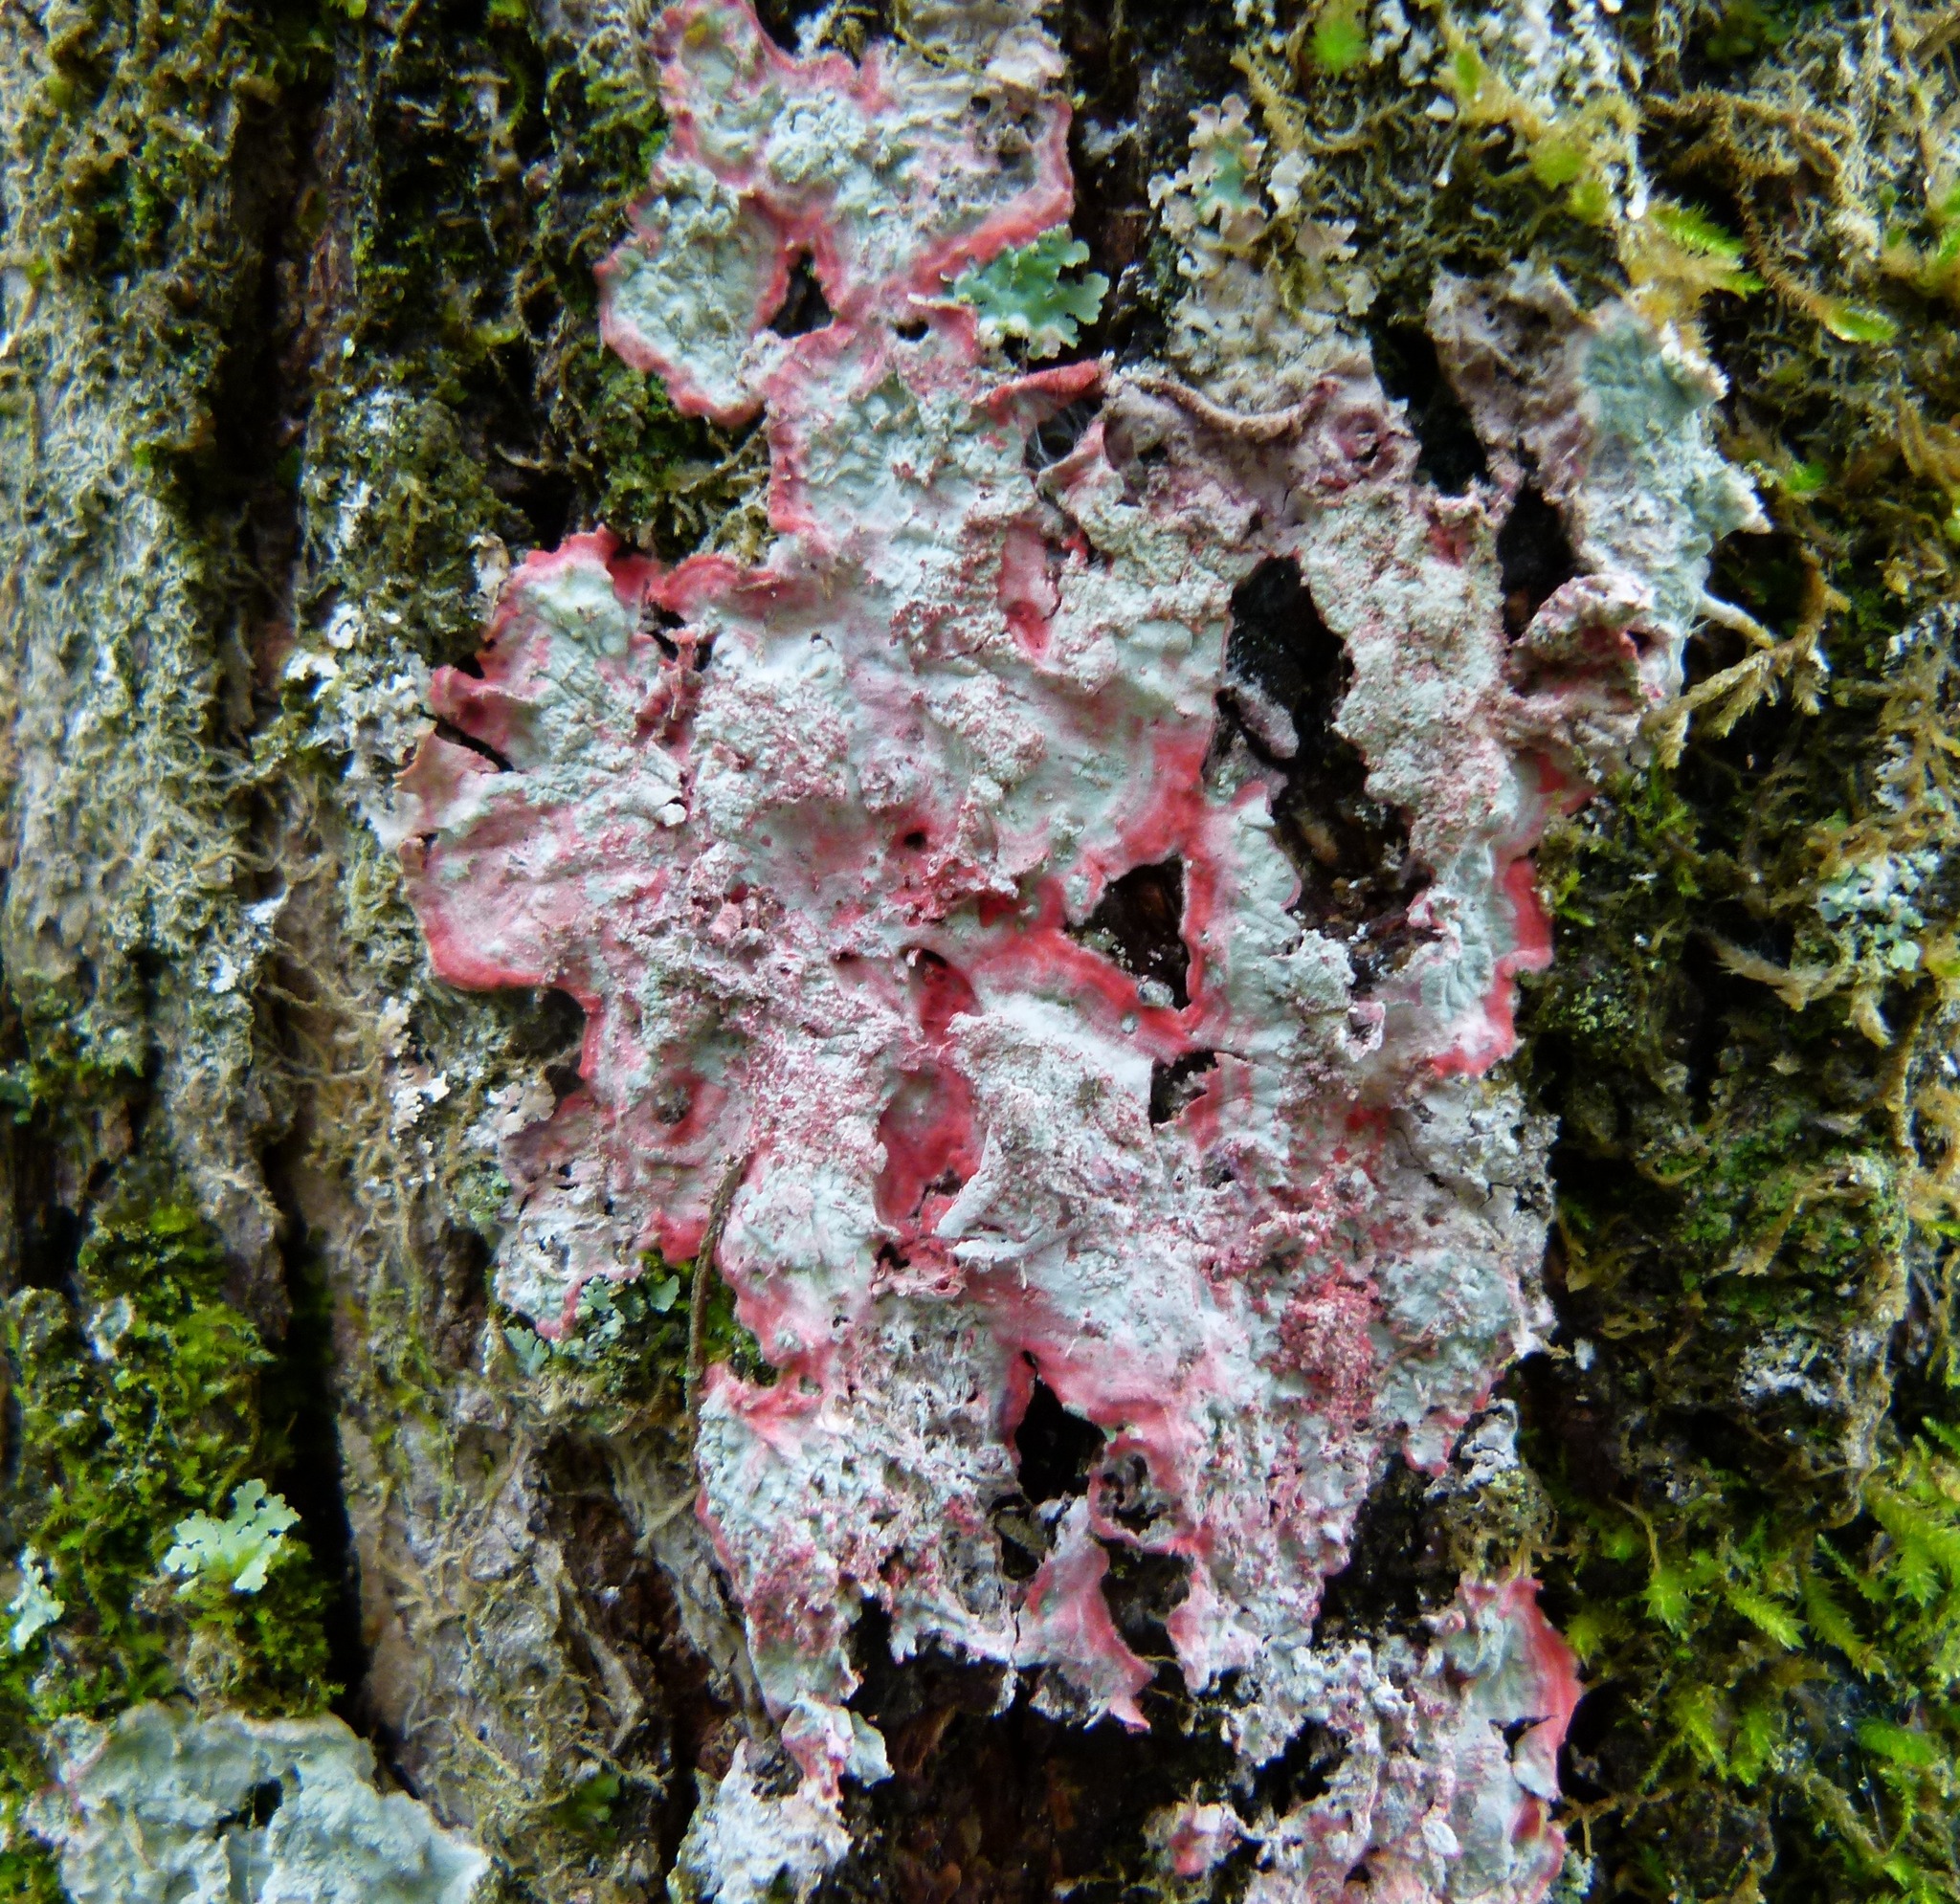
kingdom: Fungi
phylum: Ascomycota
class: Arthoniomycetes
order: Arthoniales
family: Arthoniaceae
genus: Herpothallon
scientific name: Herpothallon rubrocinctum
